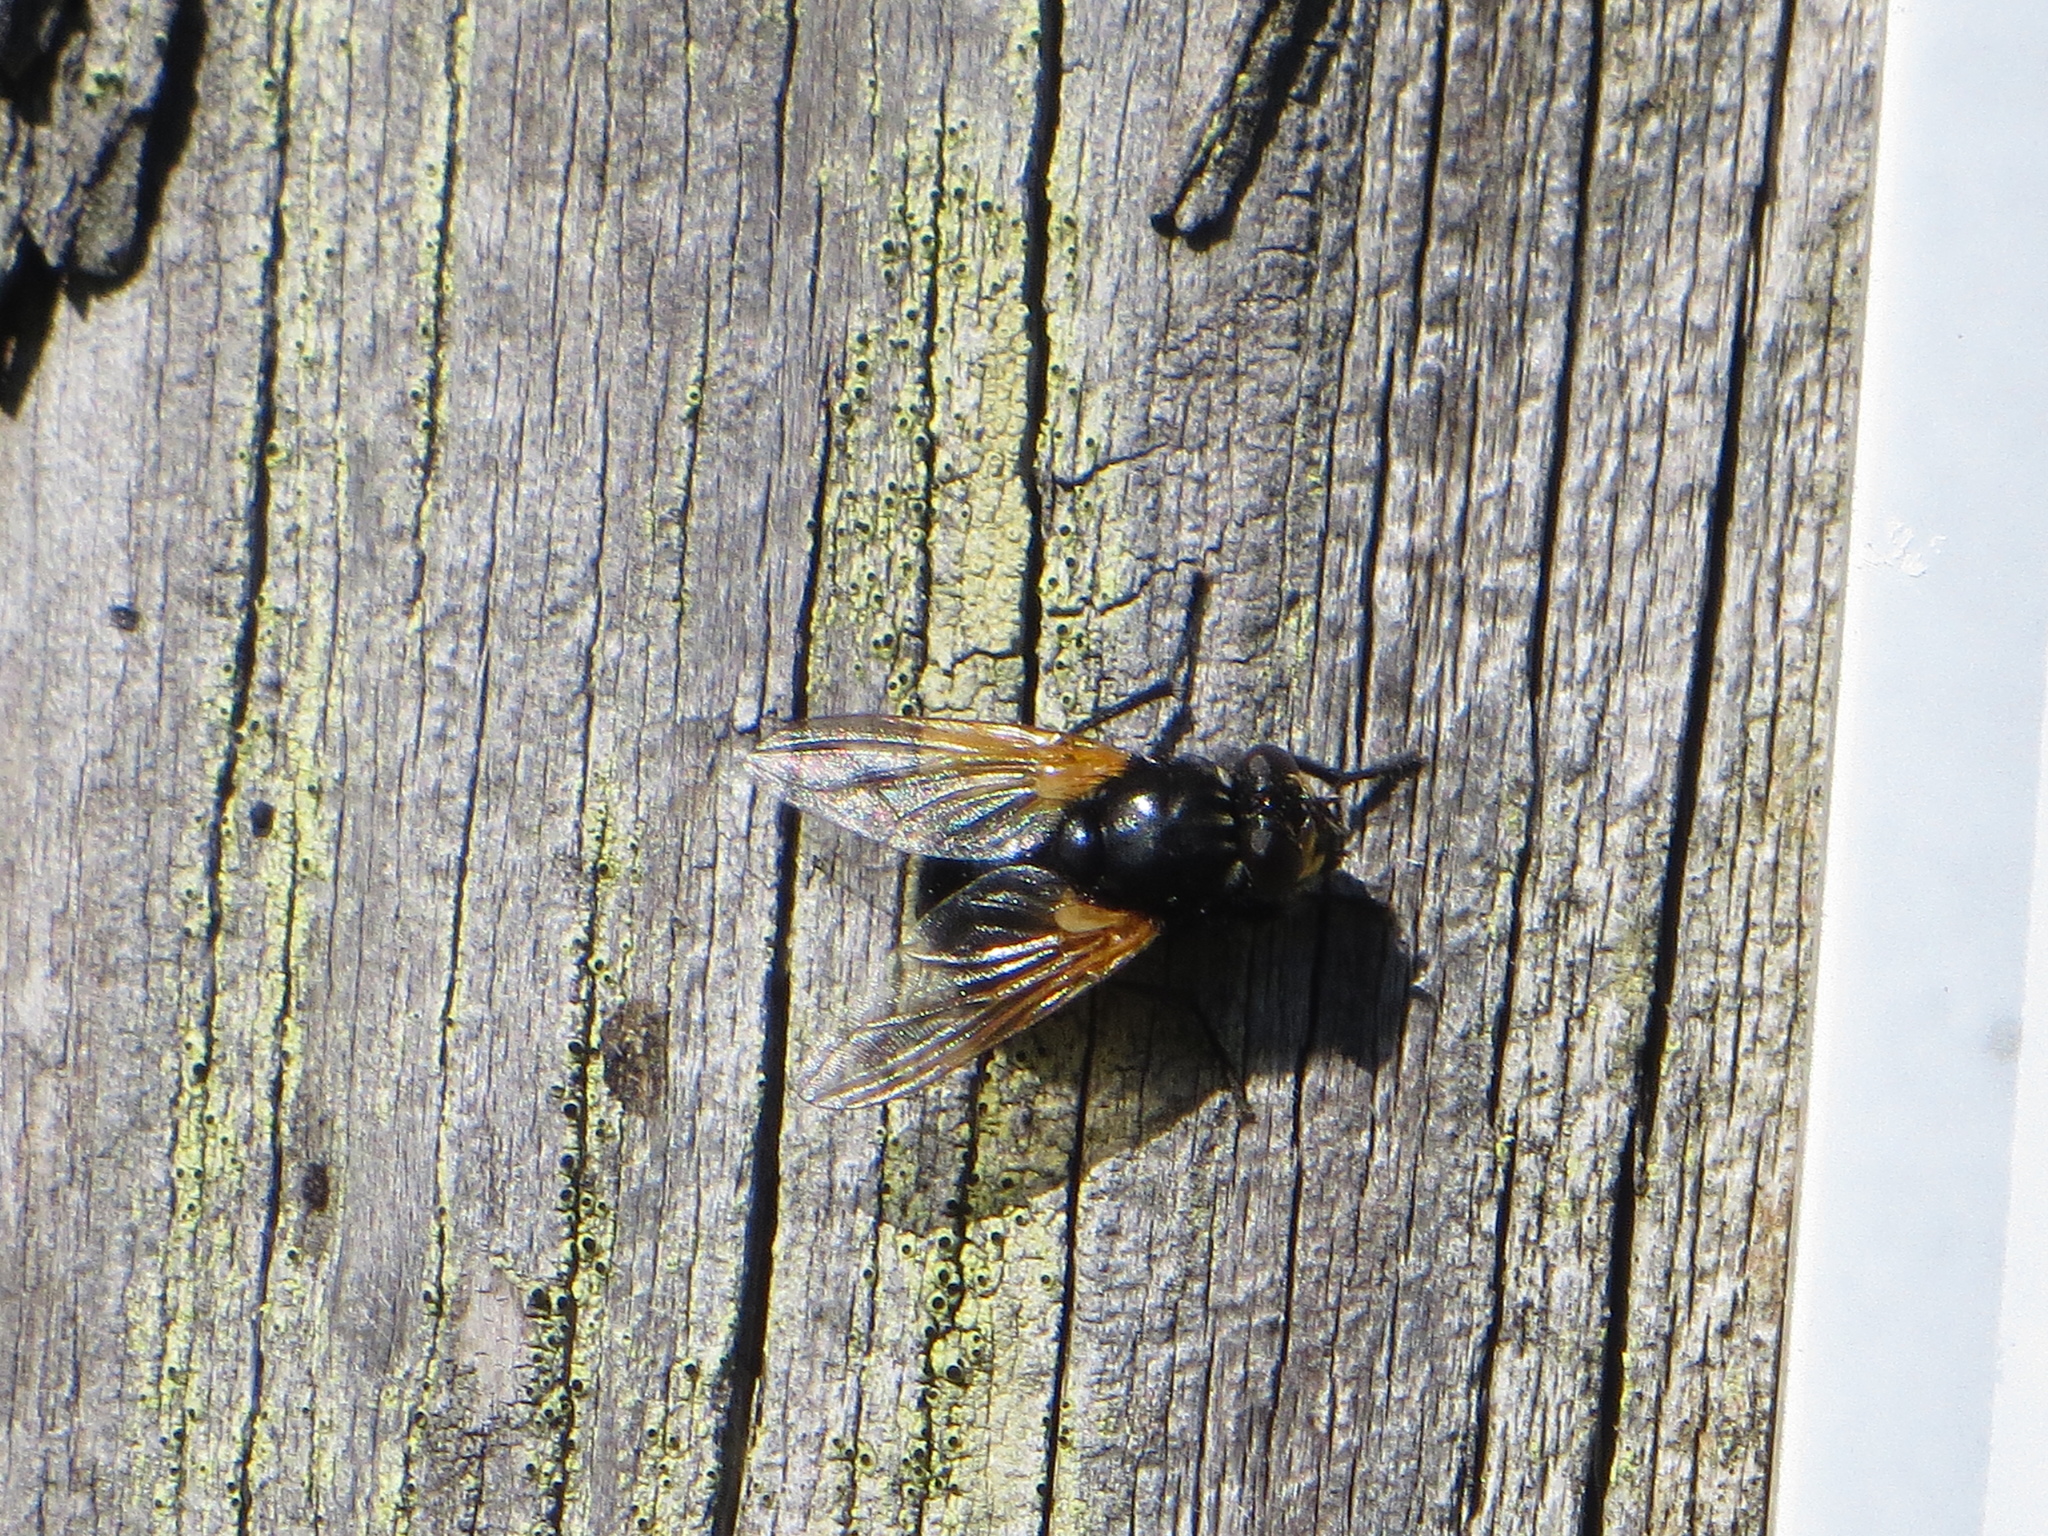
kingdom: Animalia
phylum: Arthropoda
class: Insecta
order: Diptera
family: Muscidae
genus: Mesembrina
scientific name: Mesembrina meridiana
